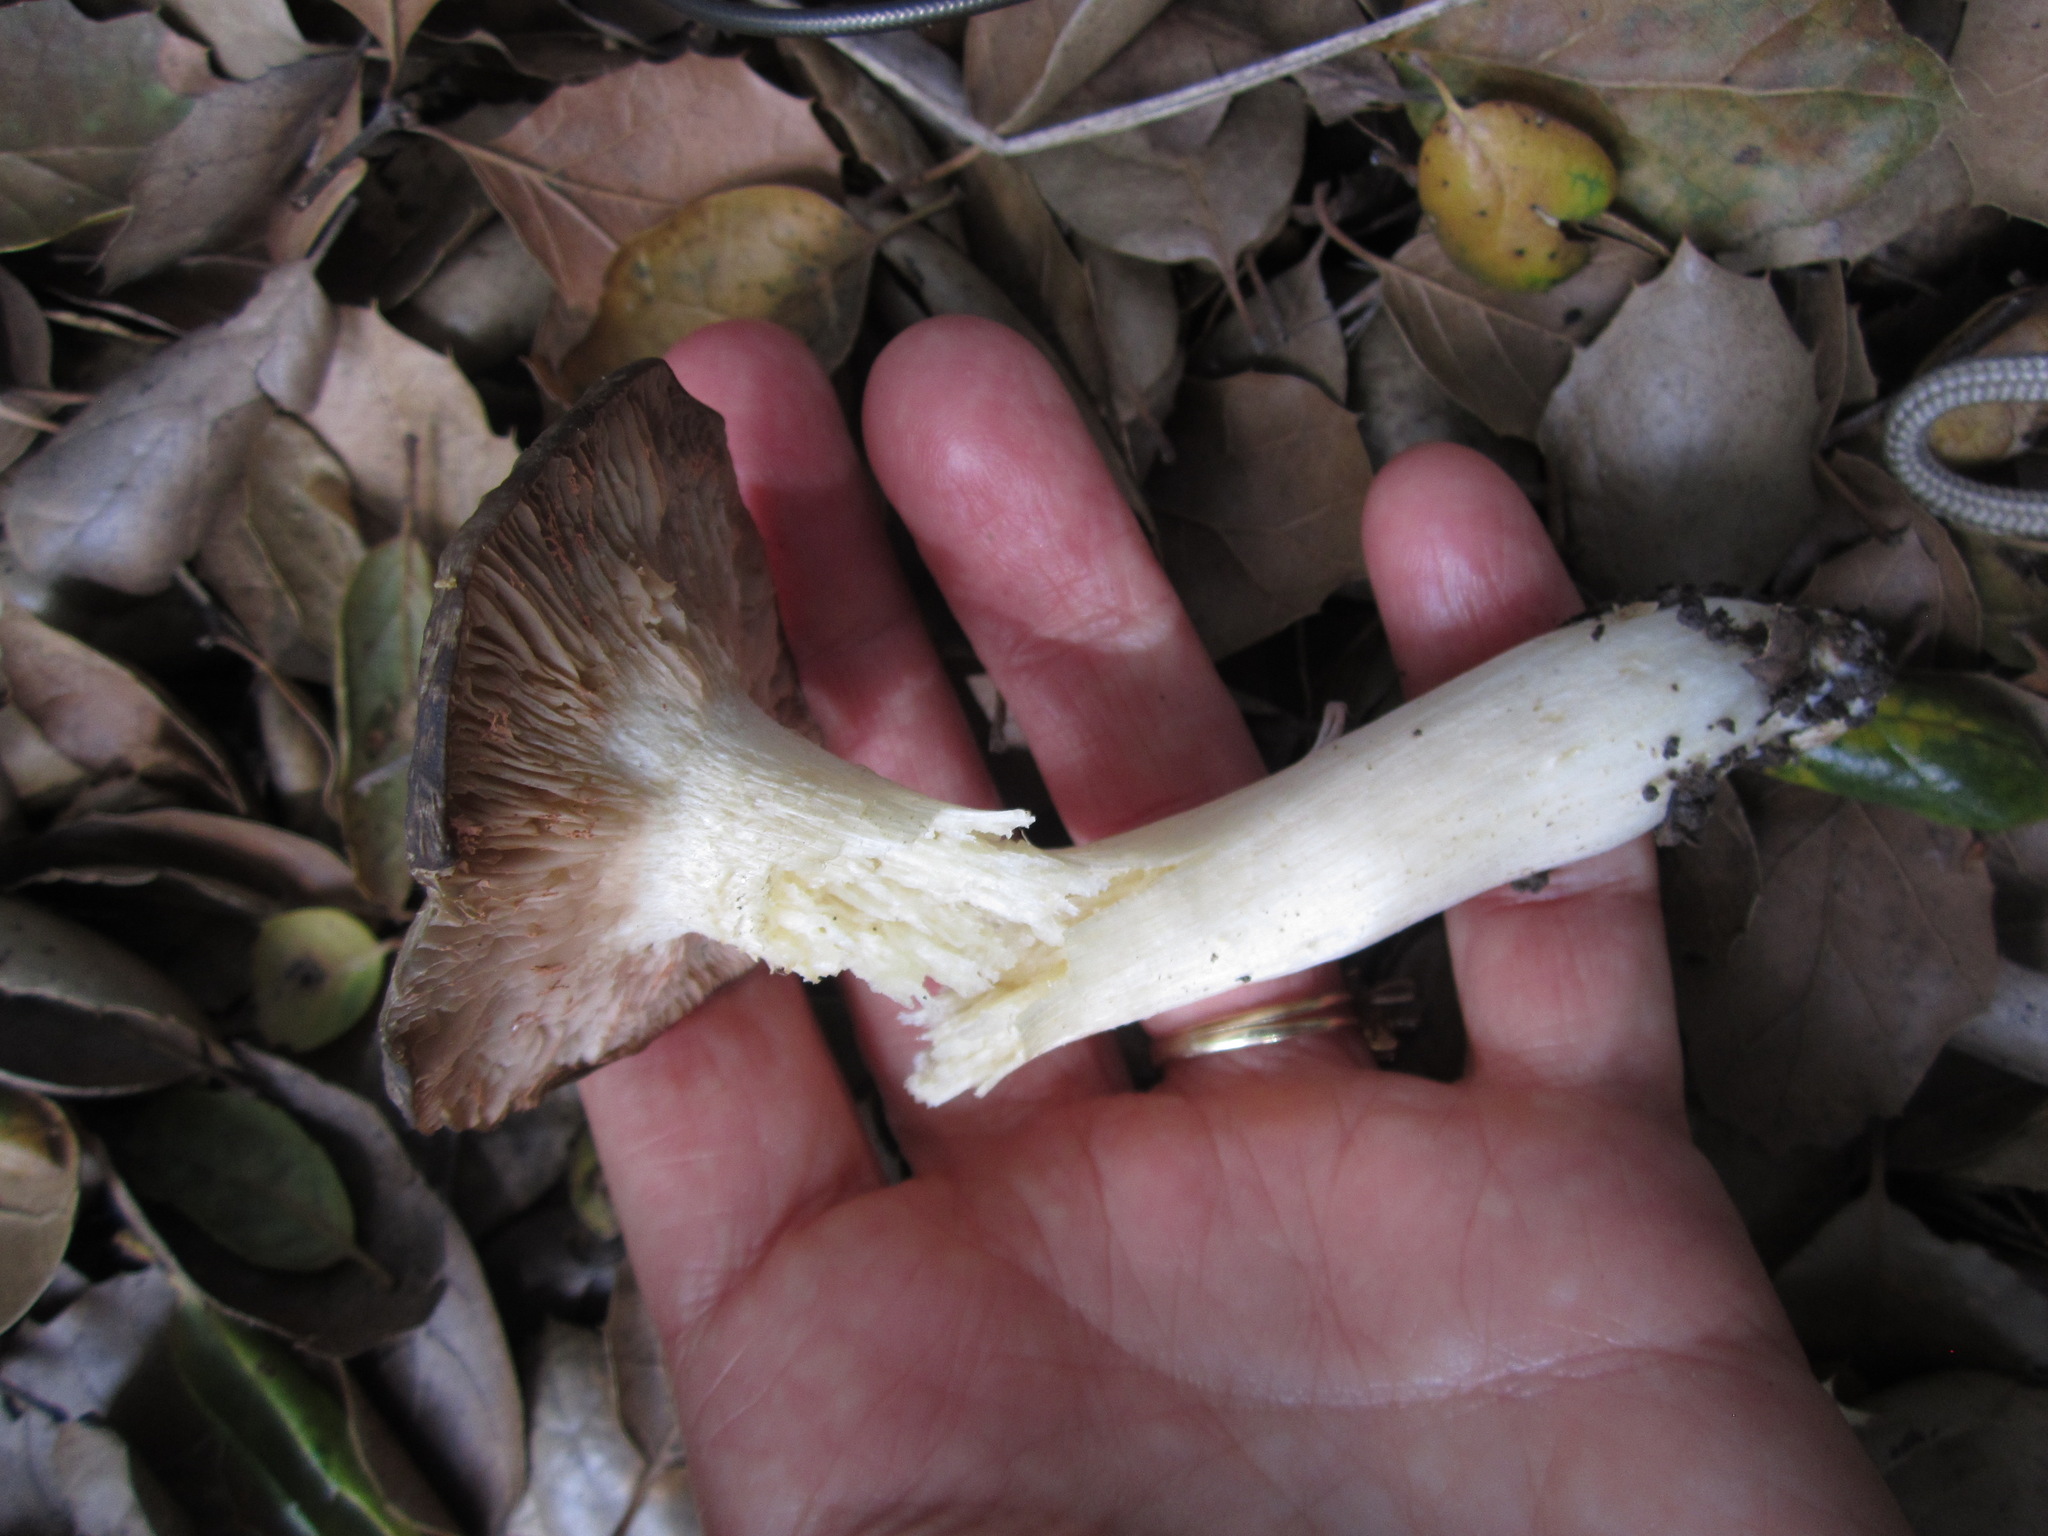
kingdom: Fungi
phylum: Basidiomycota
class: Agaricomycetes
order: Agaricales
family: Entolomataceae
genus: Entoloma
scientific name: Entoloma ferruginans
